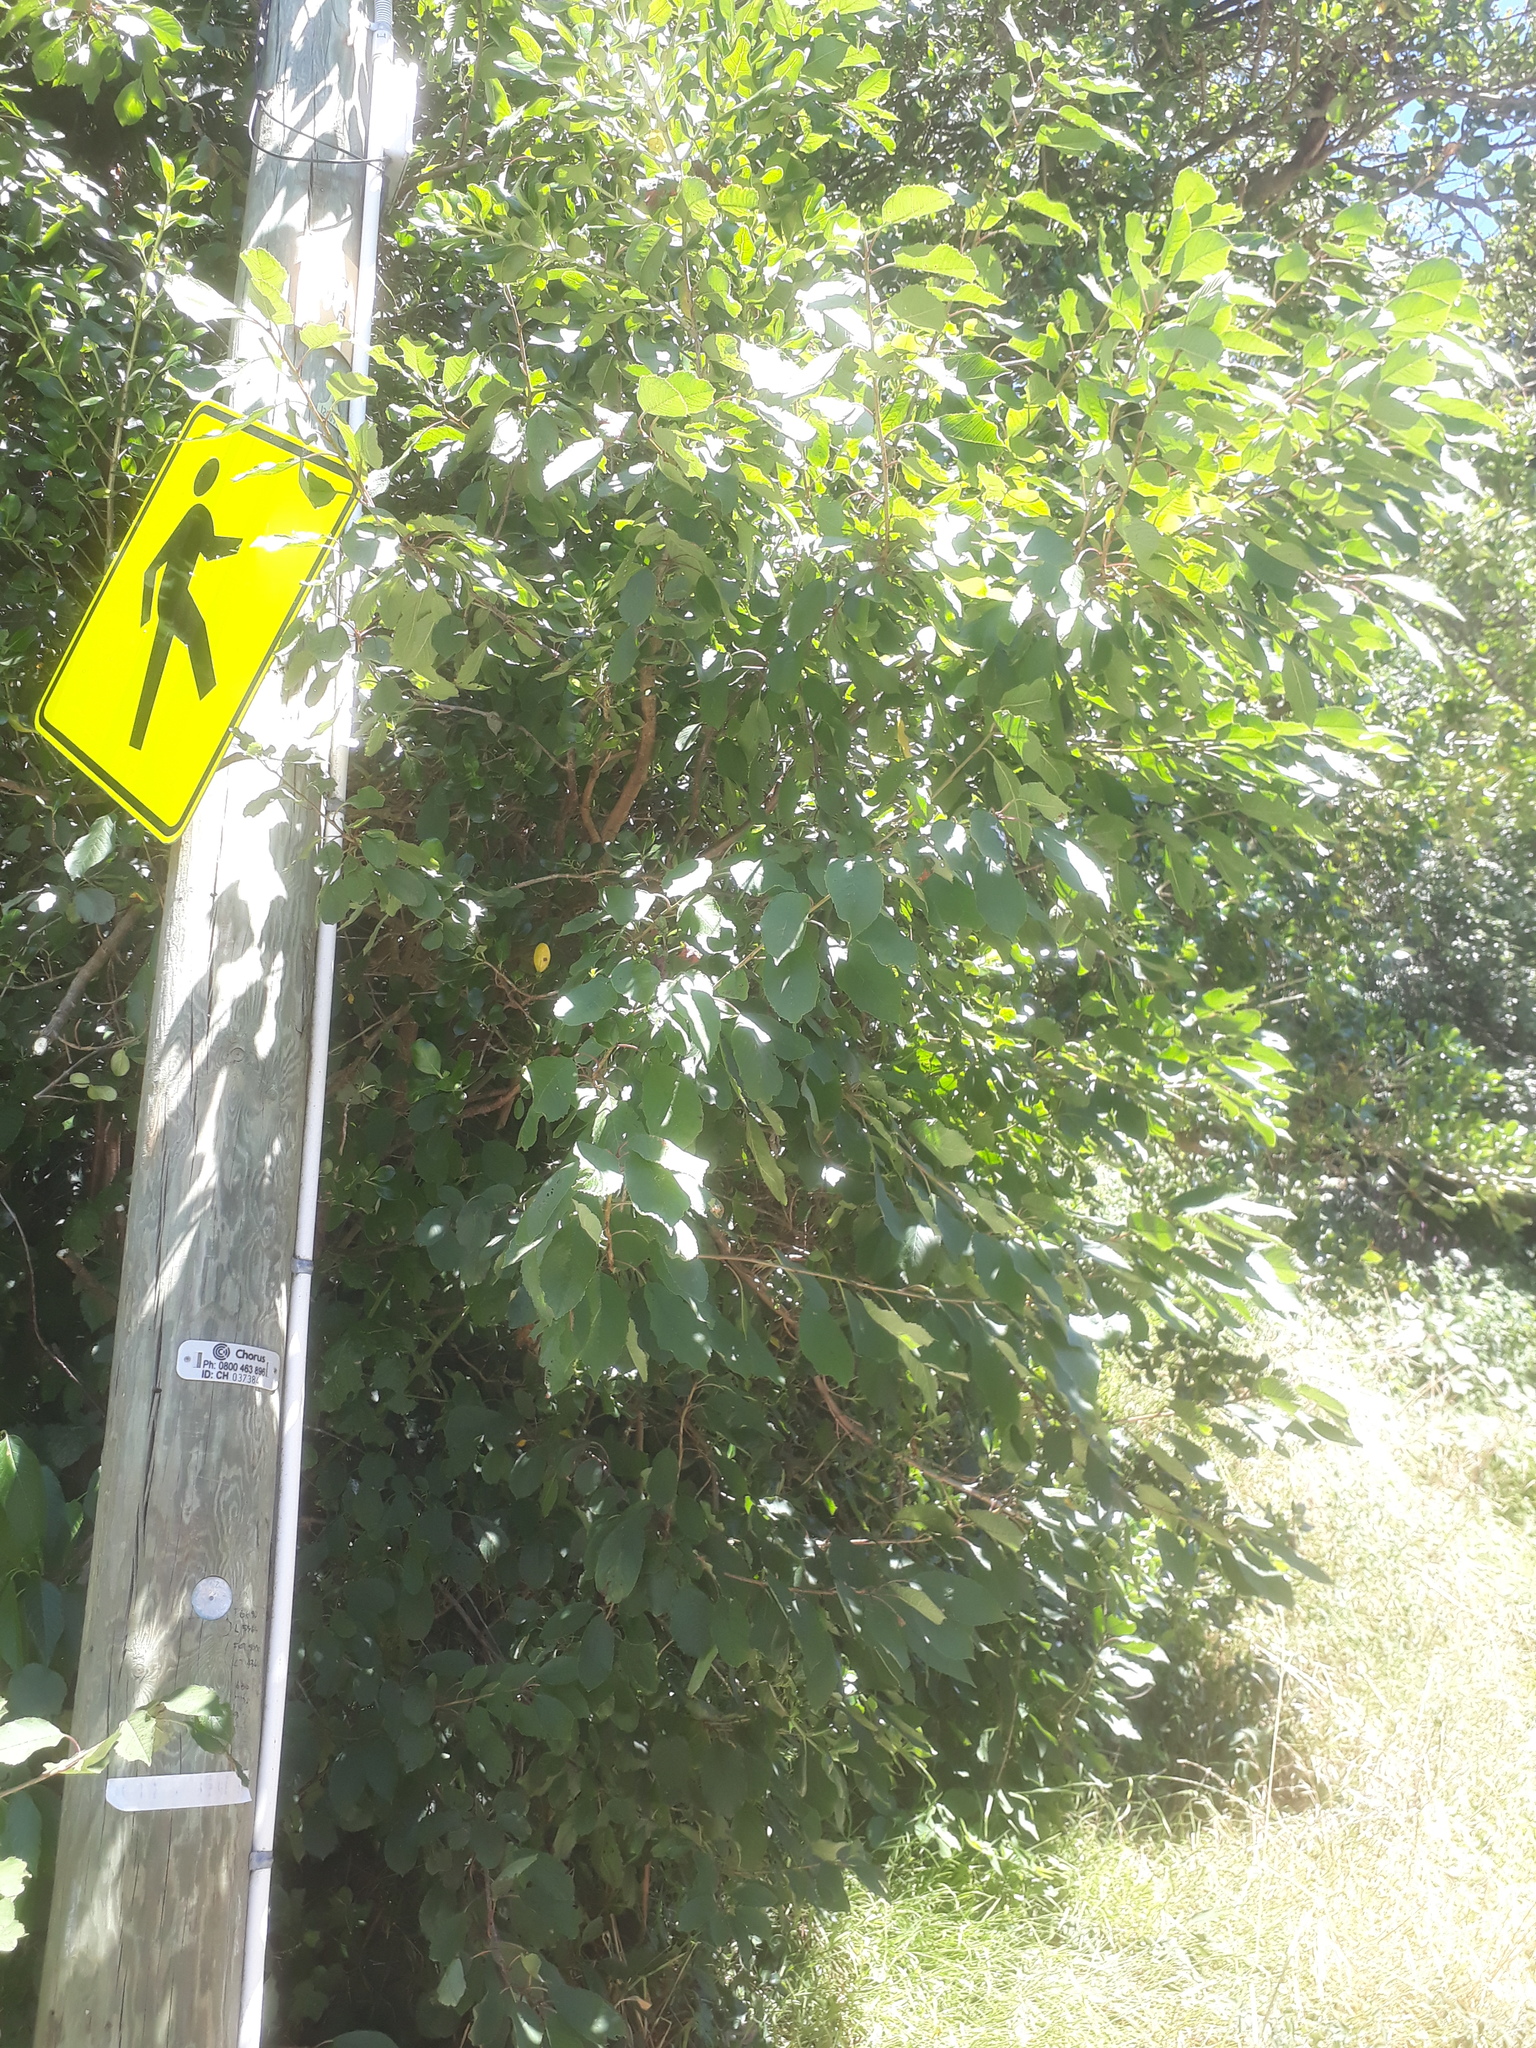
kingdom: Plantae
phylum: Tracheophyta
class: Magnoliopsida
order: Rosales
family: Rosaceae
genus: Prunus
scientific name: Prunus avium
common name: Sweet cherry
